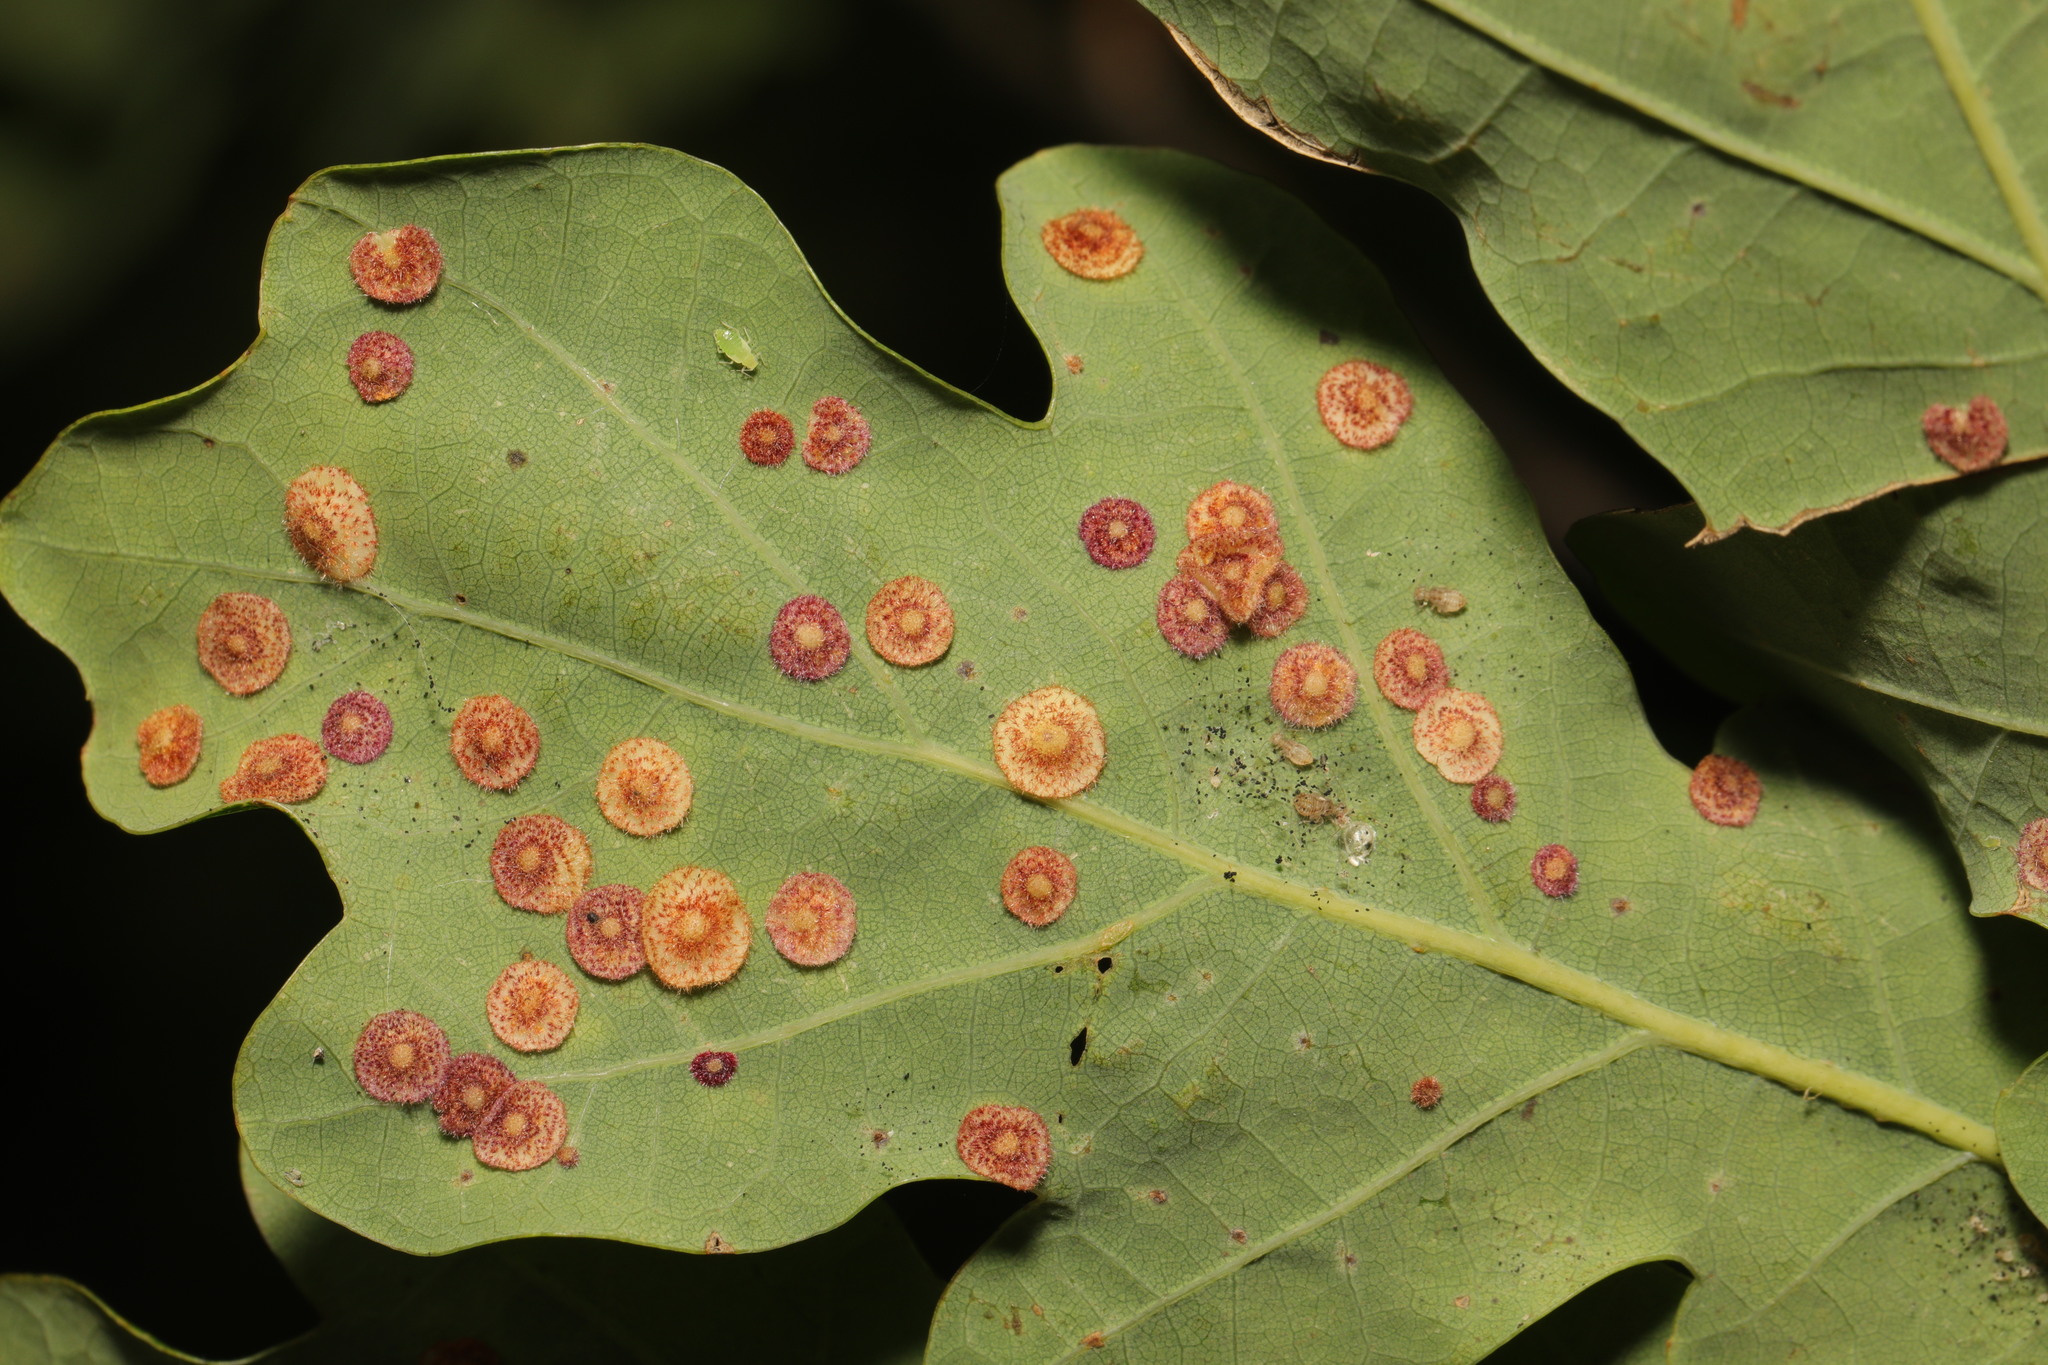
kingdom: Animalia
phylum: Arthropoda
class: Insecta
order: Hymenoptera
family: Cynipidae
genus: Neuroterus
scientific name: Neuroterus quercusbaccarum
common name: Common spangle gall
